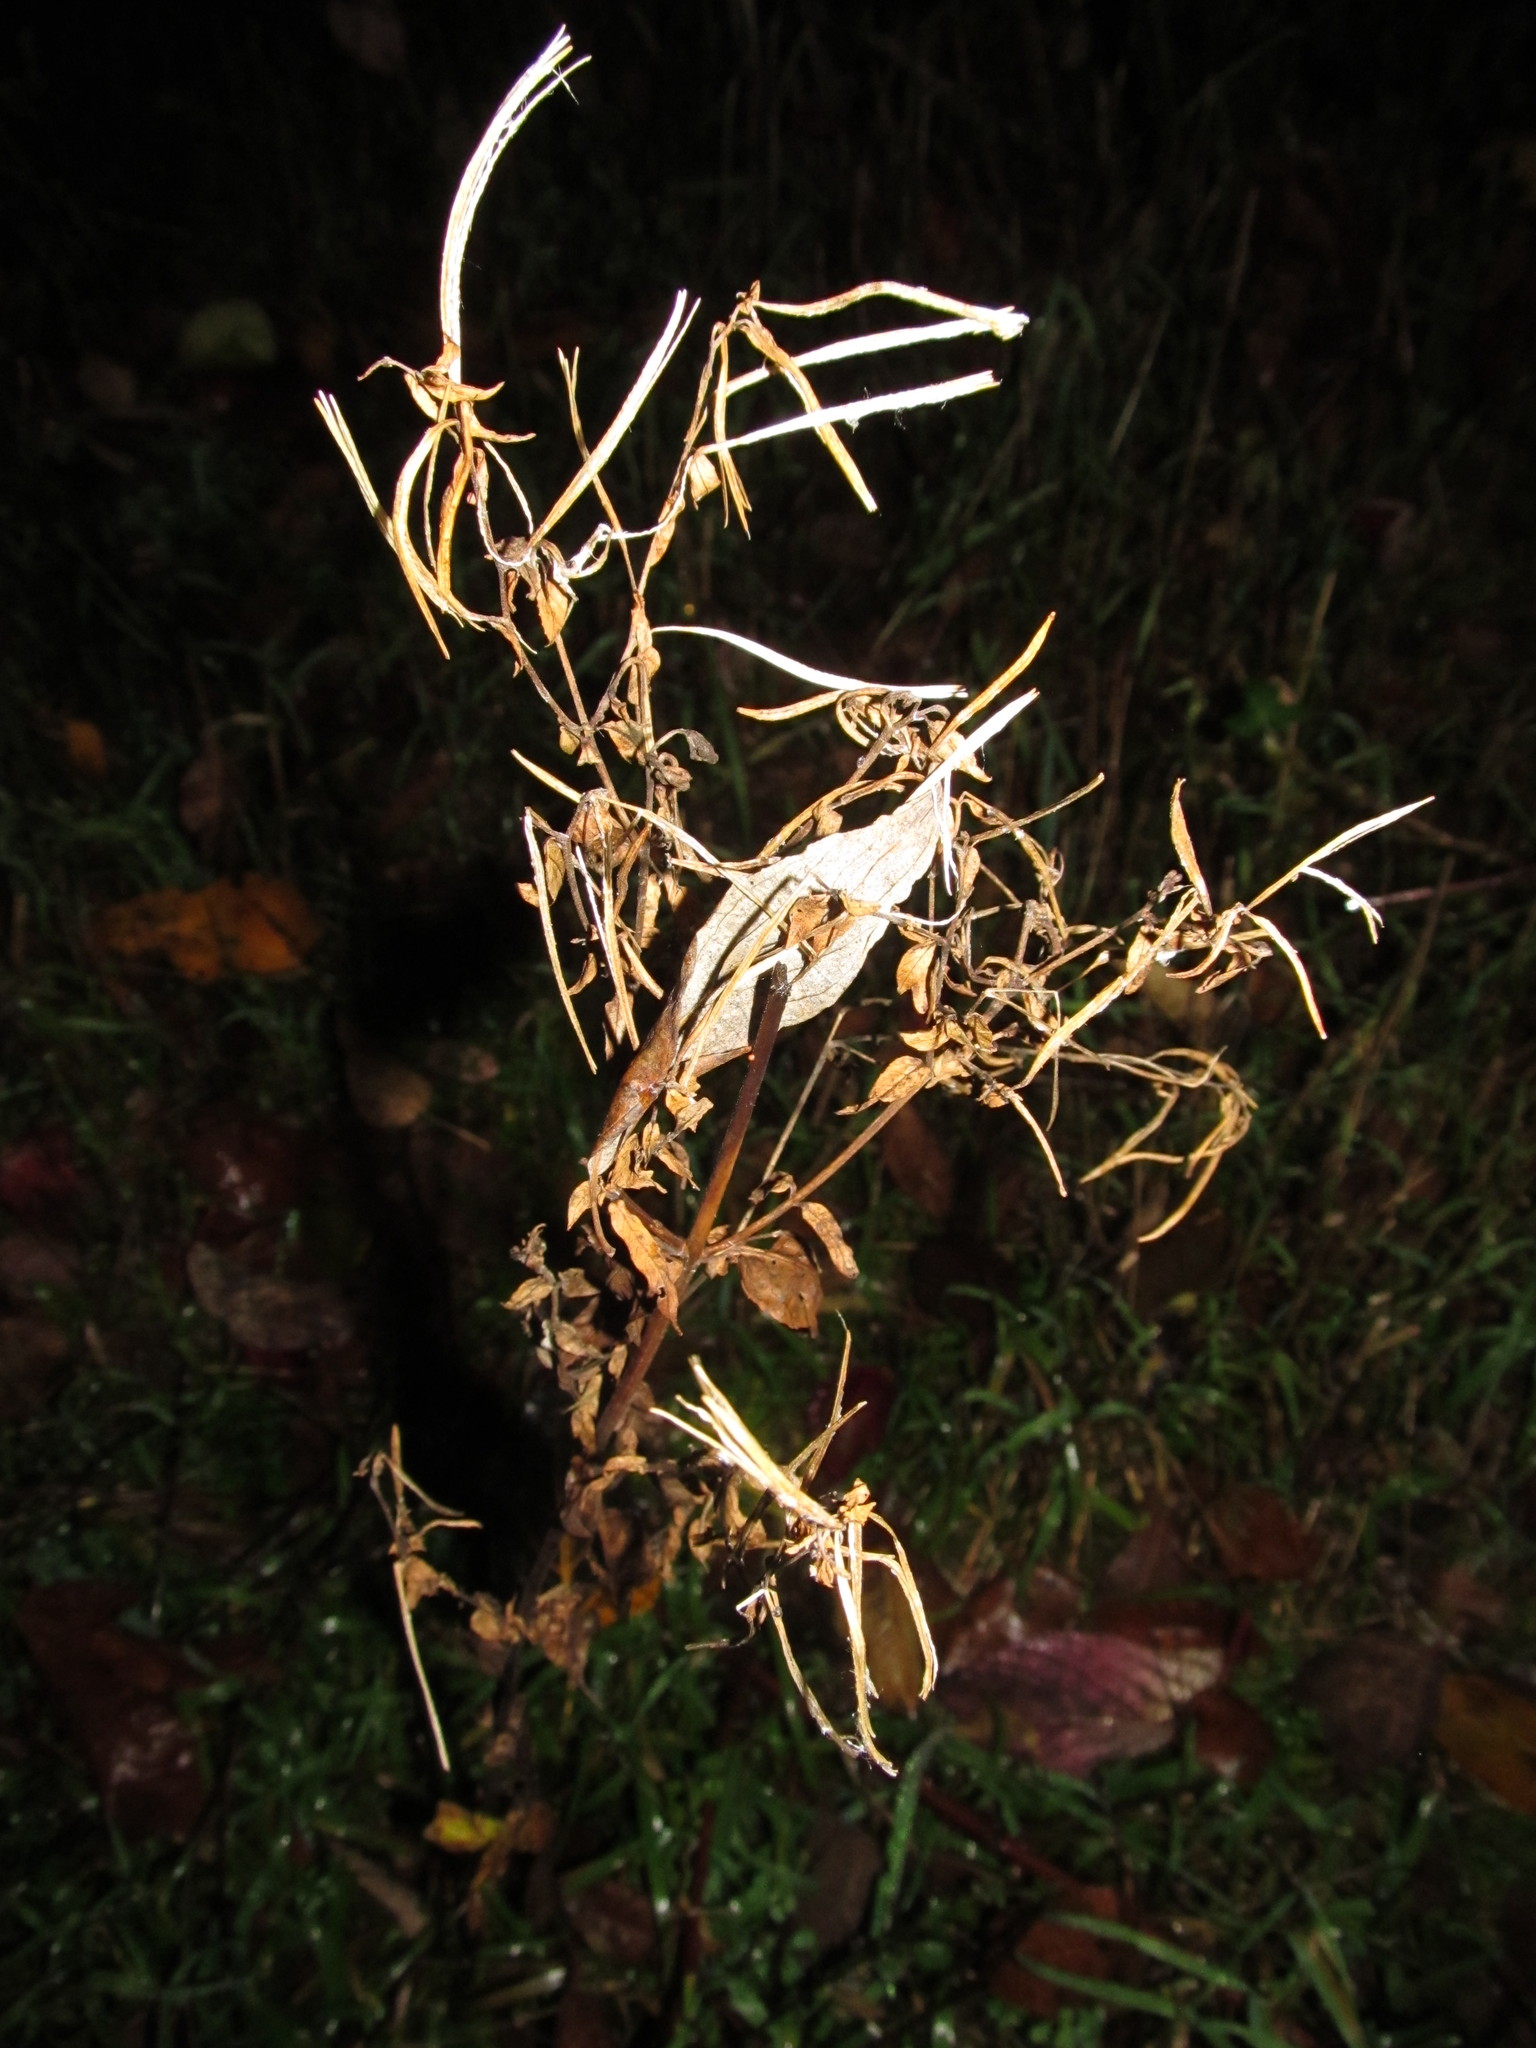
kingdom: Plantae
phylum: Tracheophyta
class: Magnoliopsida
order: Myrtales
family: Onagraceae
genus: Epilobium
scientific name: Epilobium ciliatum
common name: American willowherb
